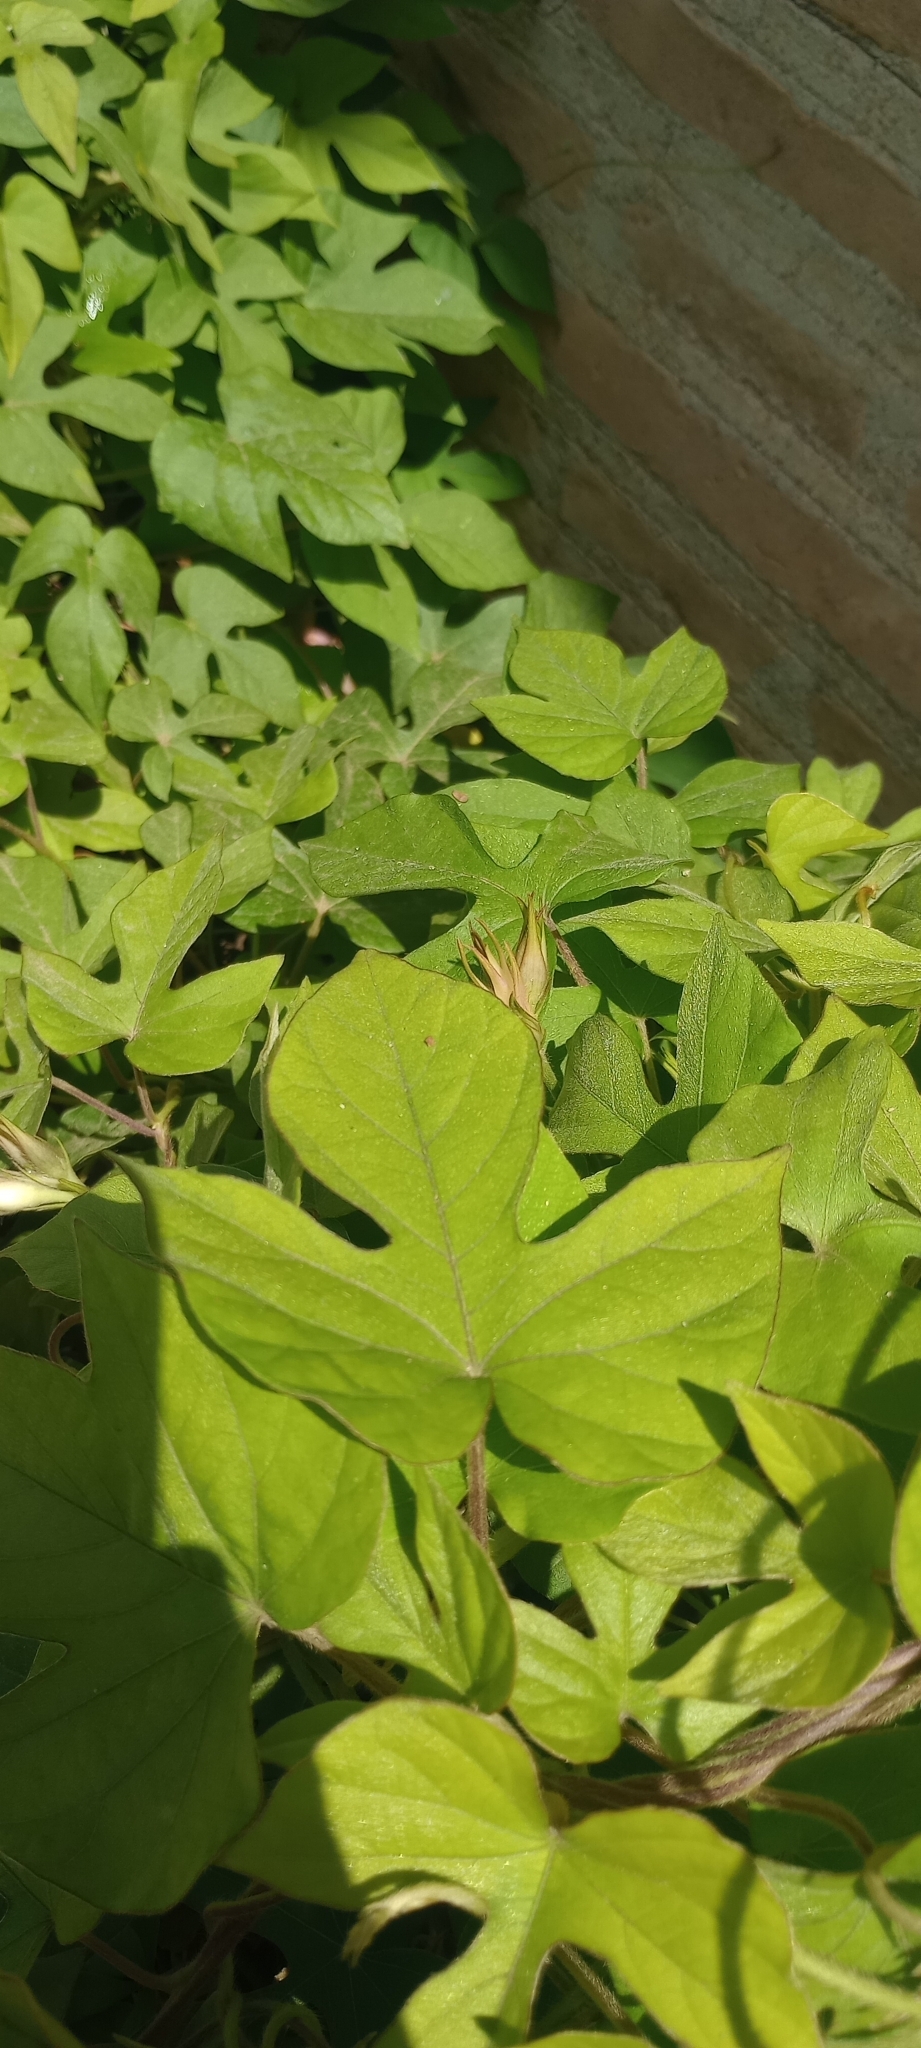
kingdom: Plantae
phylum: Tracheophyta
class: Magnoliopsida
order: Solanales
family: Convolvulaceae
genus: Ipomoea
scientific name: Ipomoea indica
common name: Blue dawnflower
